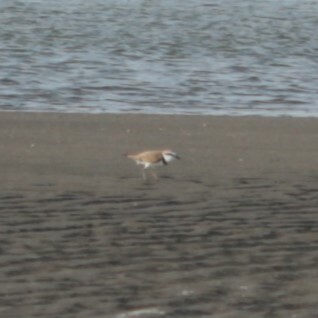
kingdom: Animalia
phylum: Chordata
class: Aves
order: Charadriiformes
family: Charadriidae
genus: Charadrius
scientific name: Charadrius alexandrinus
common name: Kentish plover
